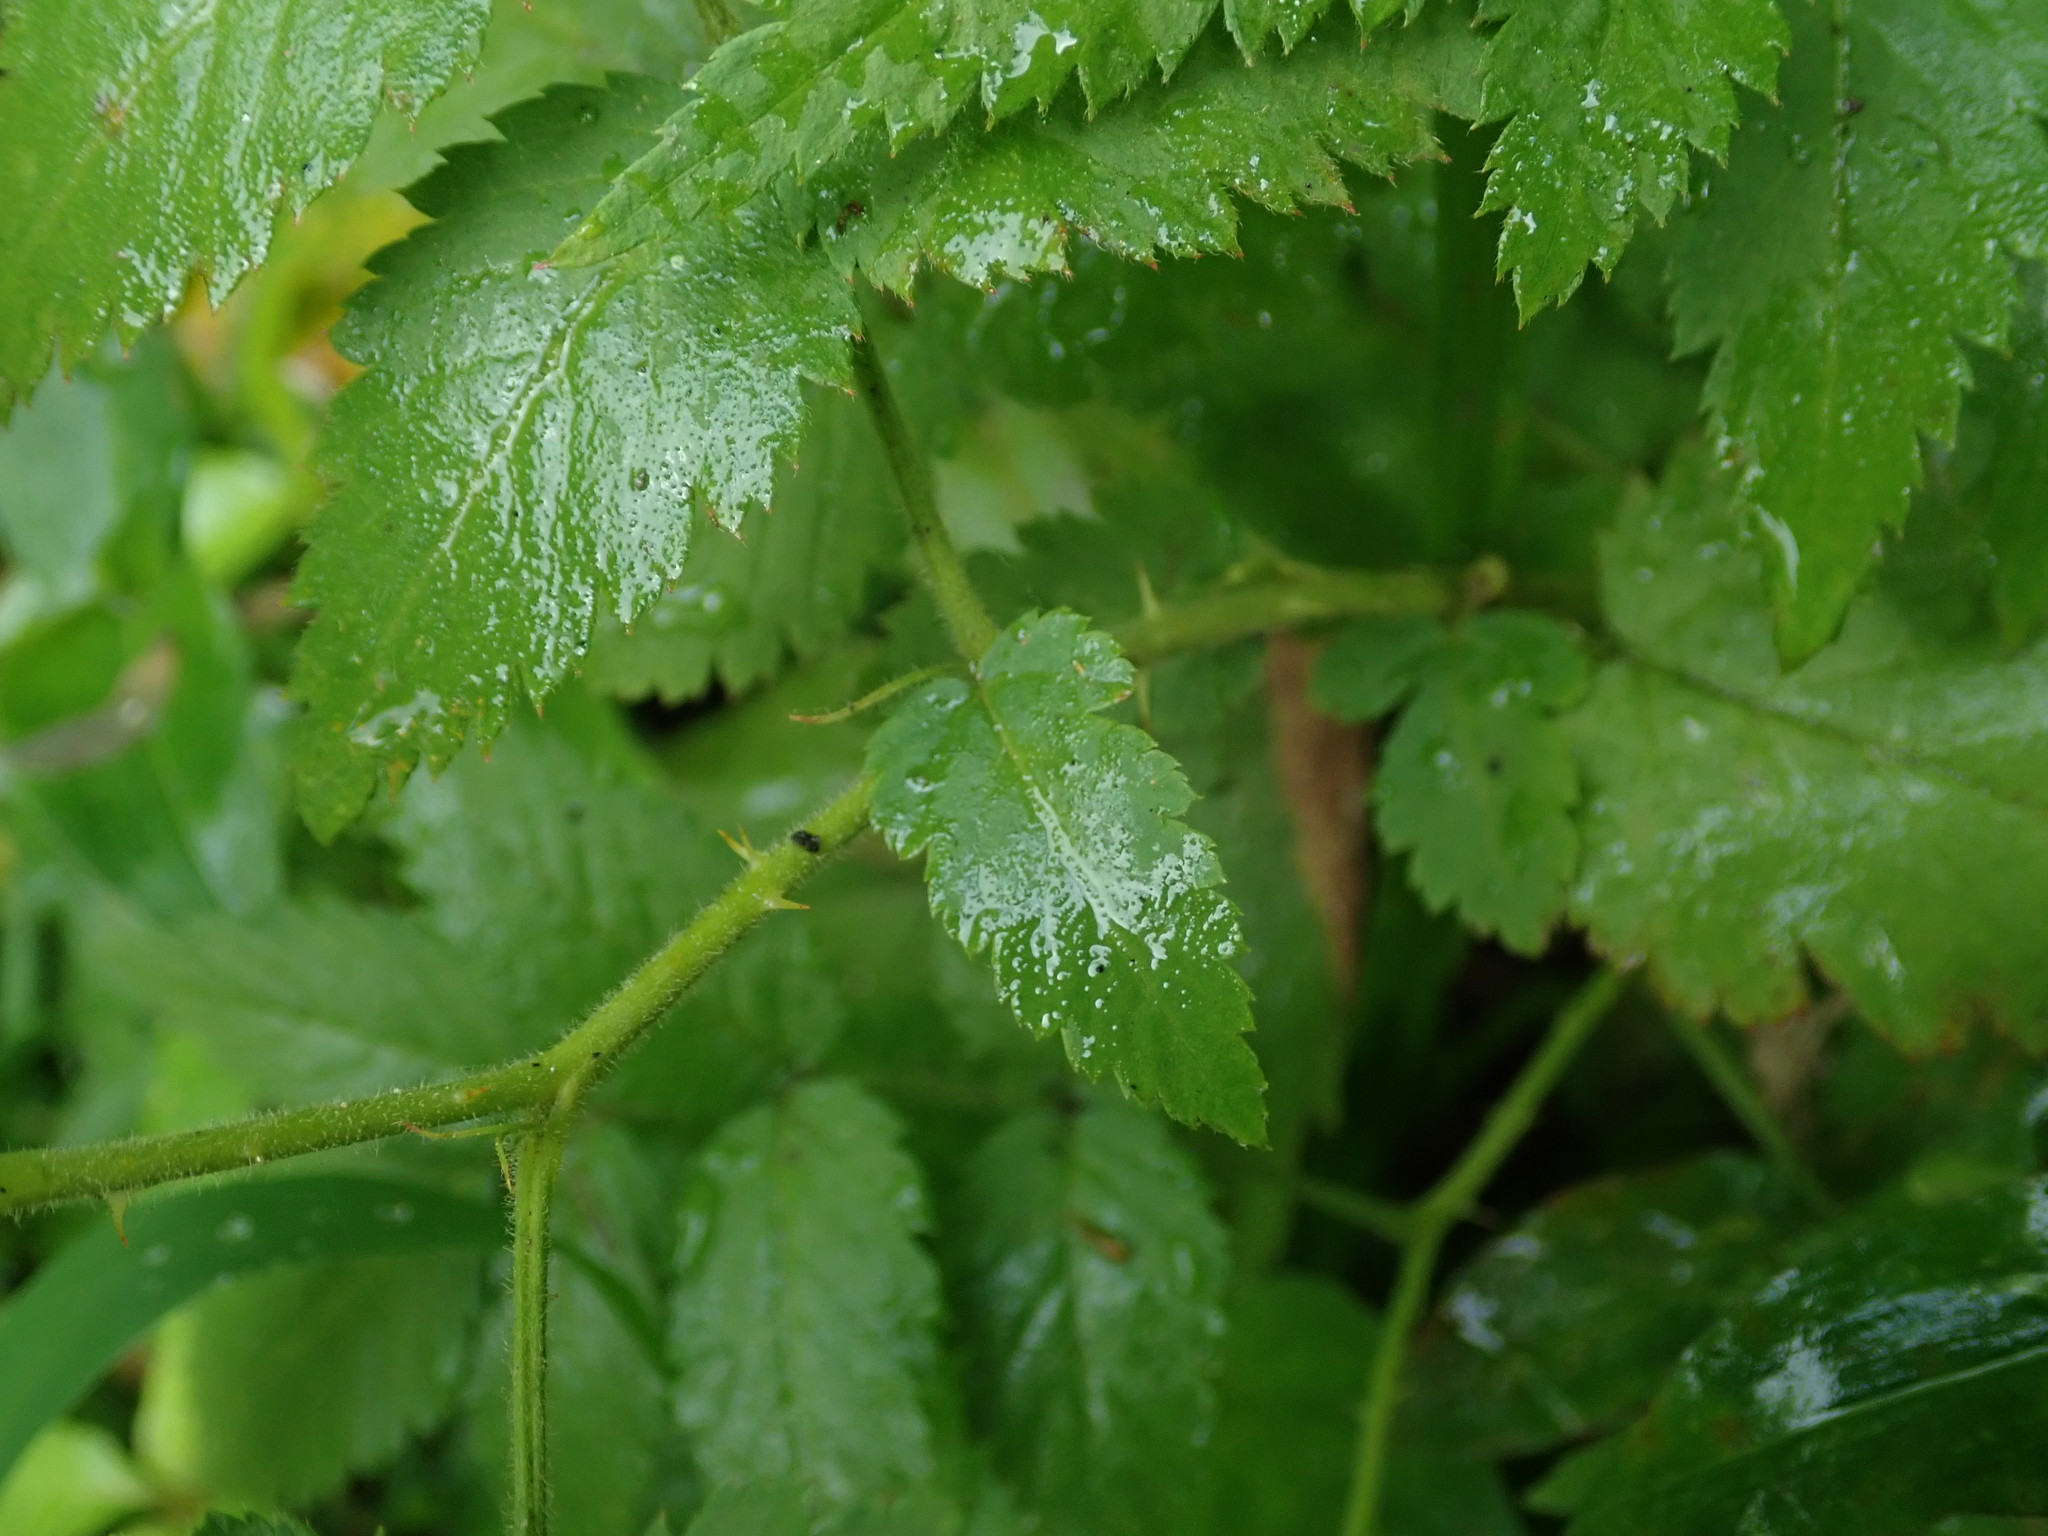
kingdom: Plantae
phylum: Tracheophyta
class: Magnoliopsida
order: Rosales
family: Rosaceae
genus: Rubus
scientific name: Rubus rosifolius
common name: Roseleaf raspberry
